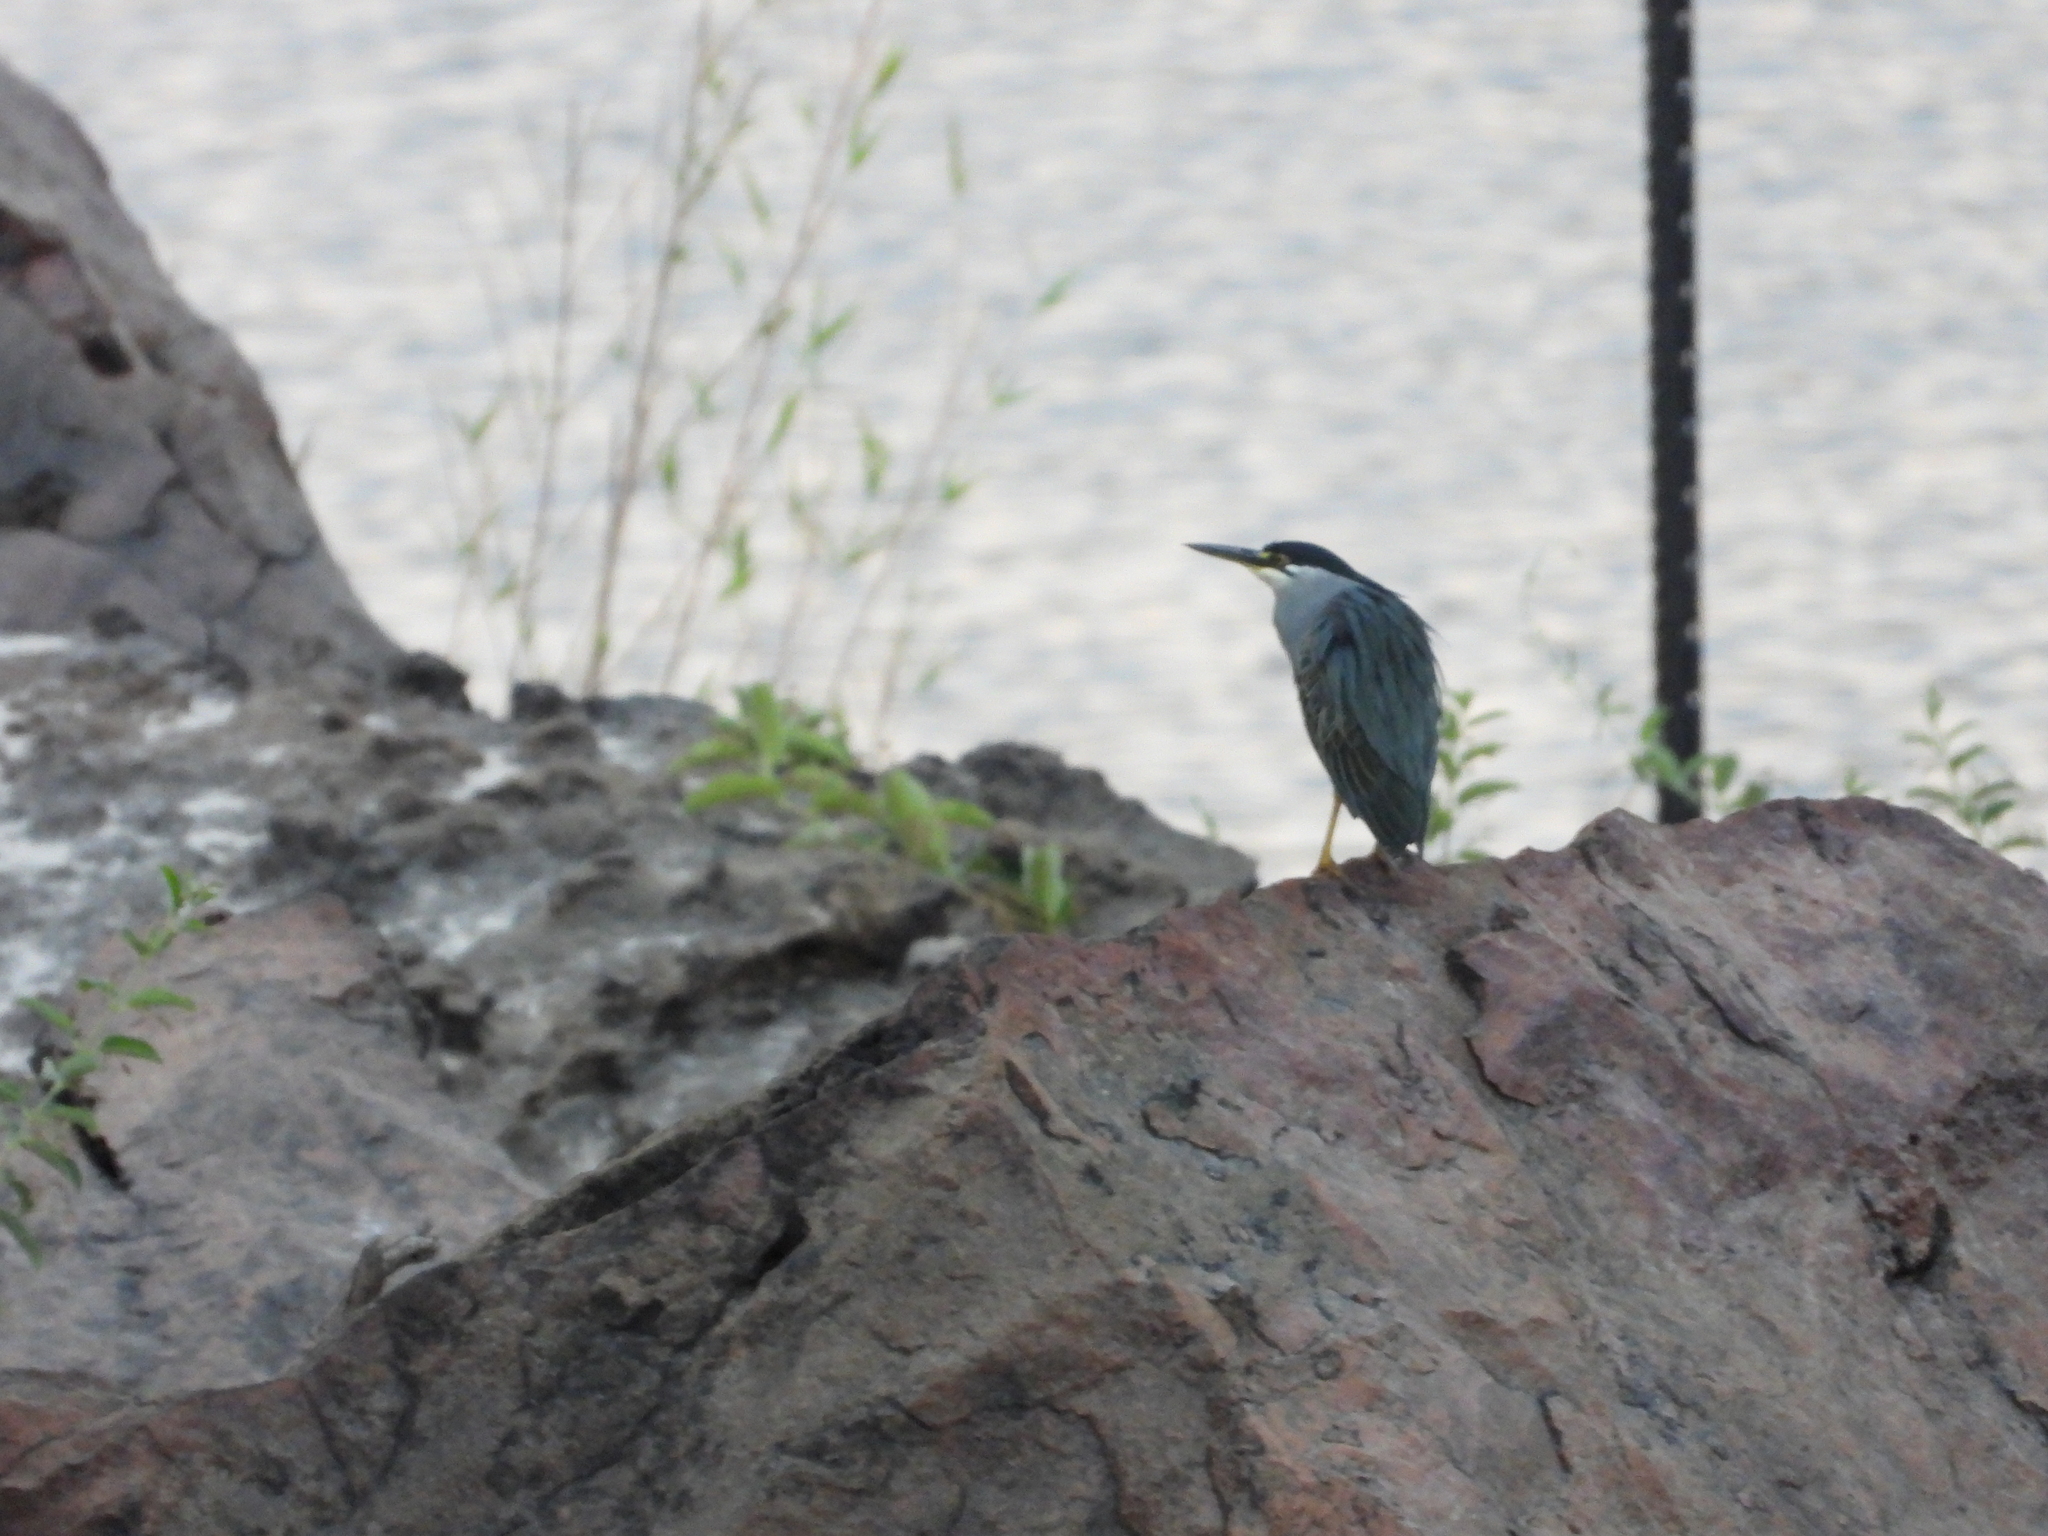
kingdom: Animalia
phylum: Chordata
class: Aves
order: Pelecaniformes
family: Ardeidae
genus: Butorides
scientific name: Butorides striata
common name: Striated heron
